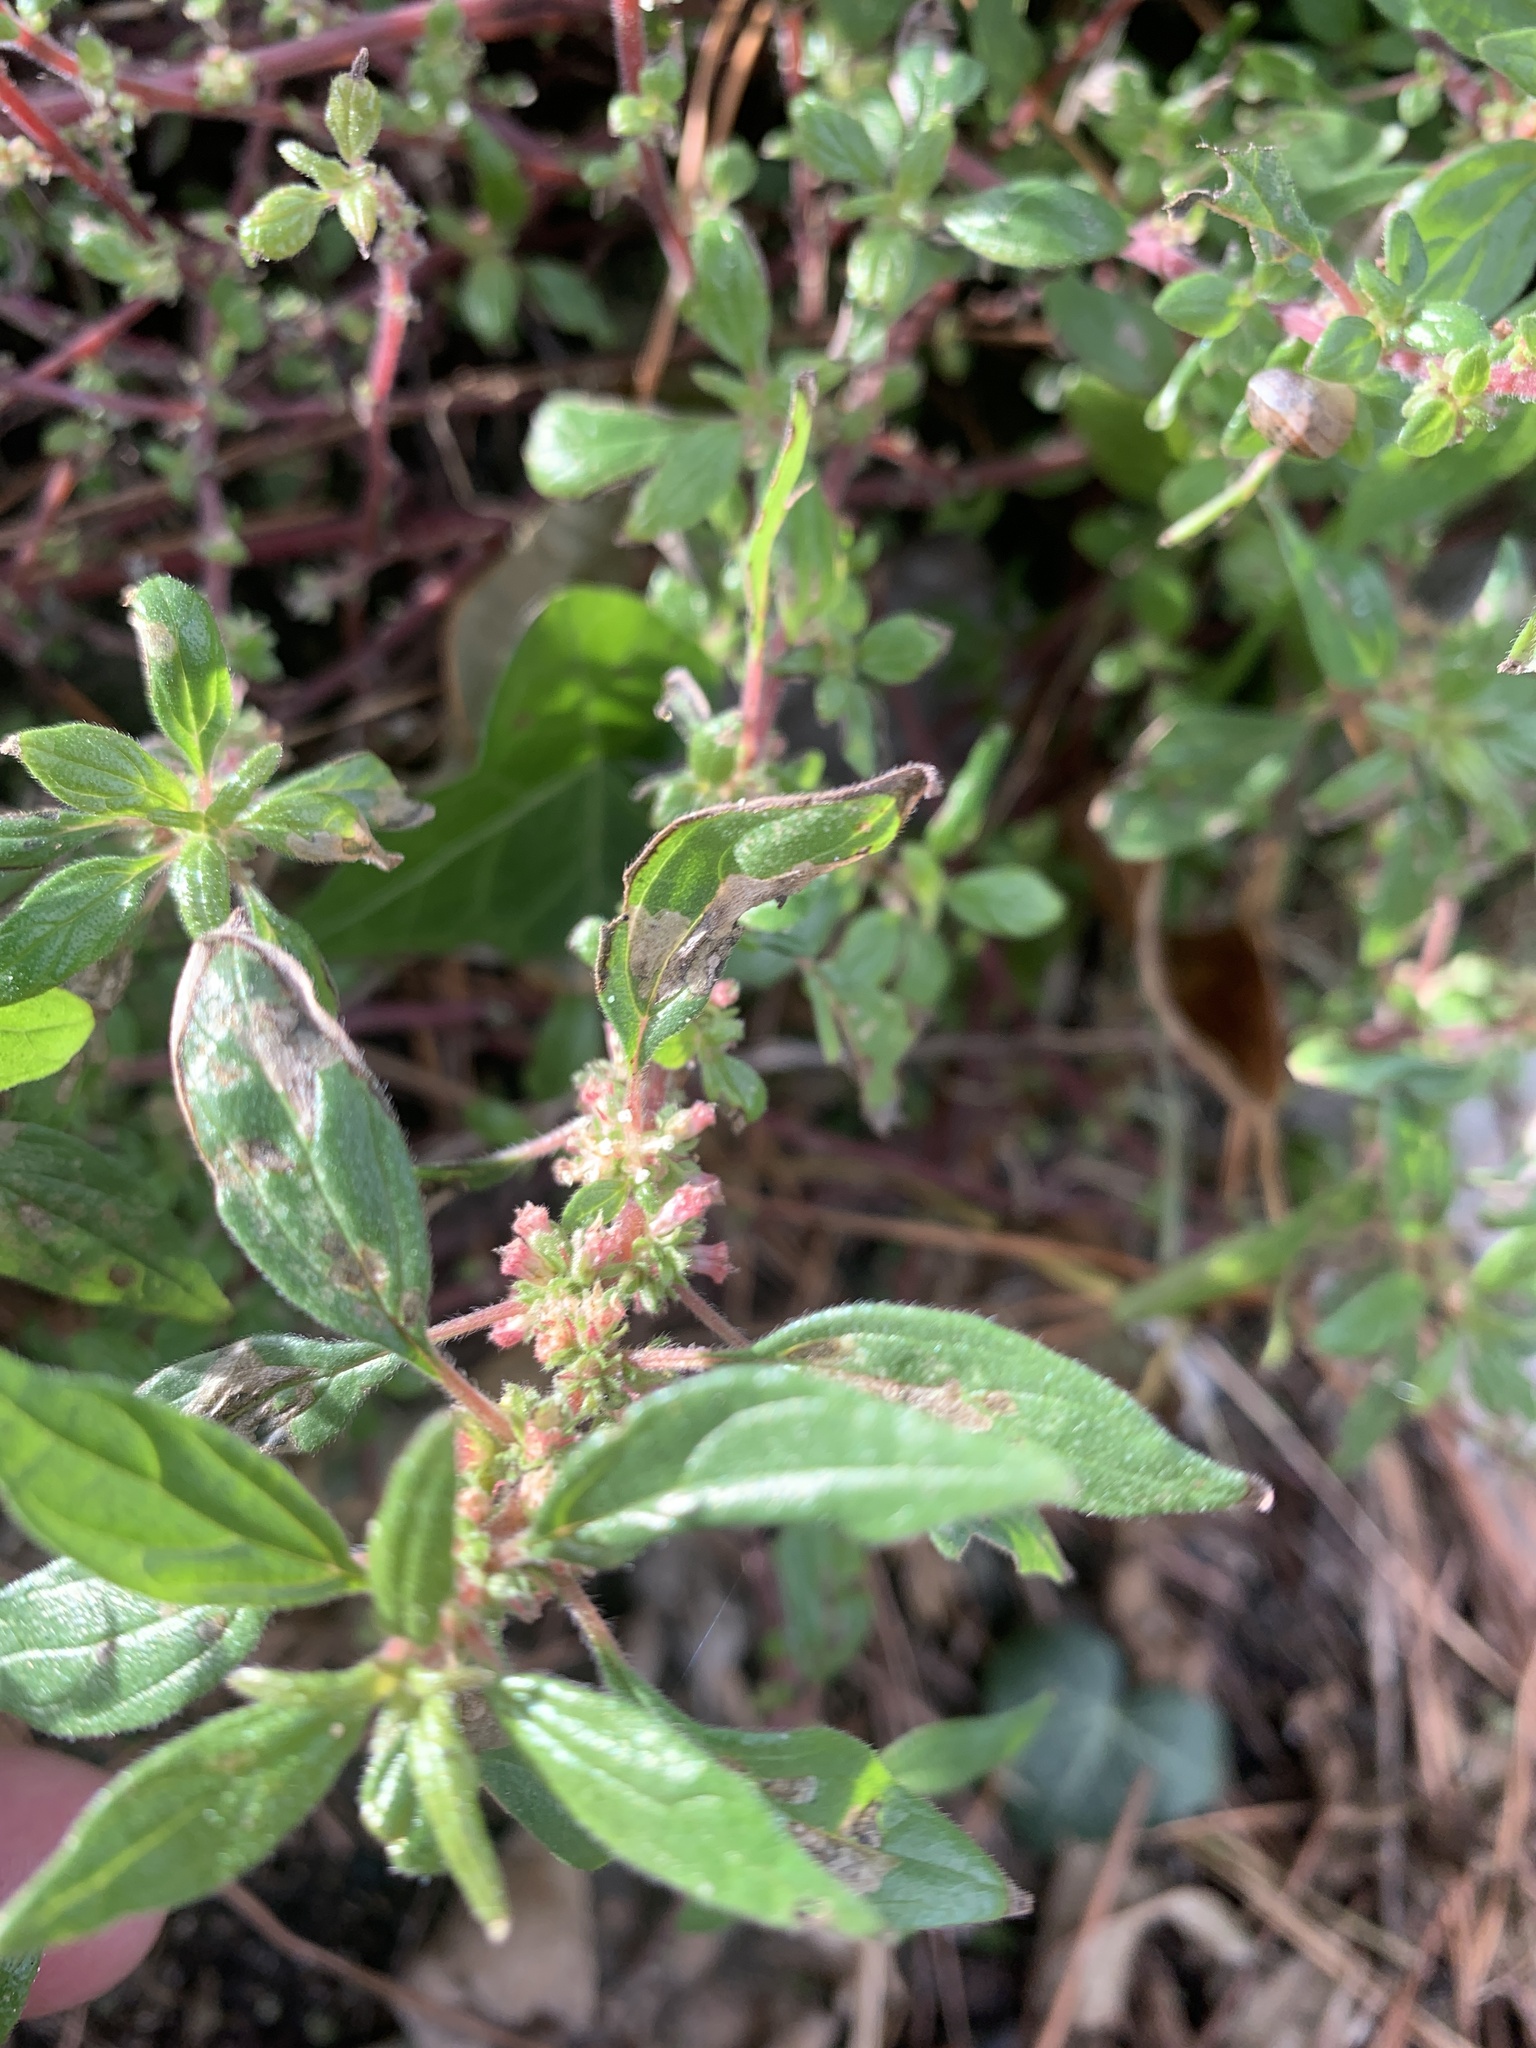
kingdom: Plantae
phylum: Tracheophyta
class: Magnoliopsida
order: Rosales
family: Urticaceae
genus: Parietaria
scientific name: Parietaria judaica
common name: Pellitory-of-the-wall
